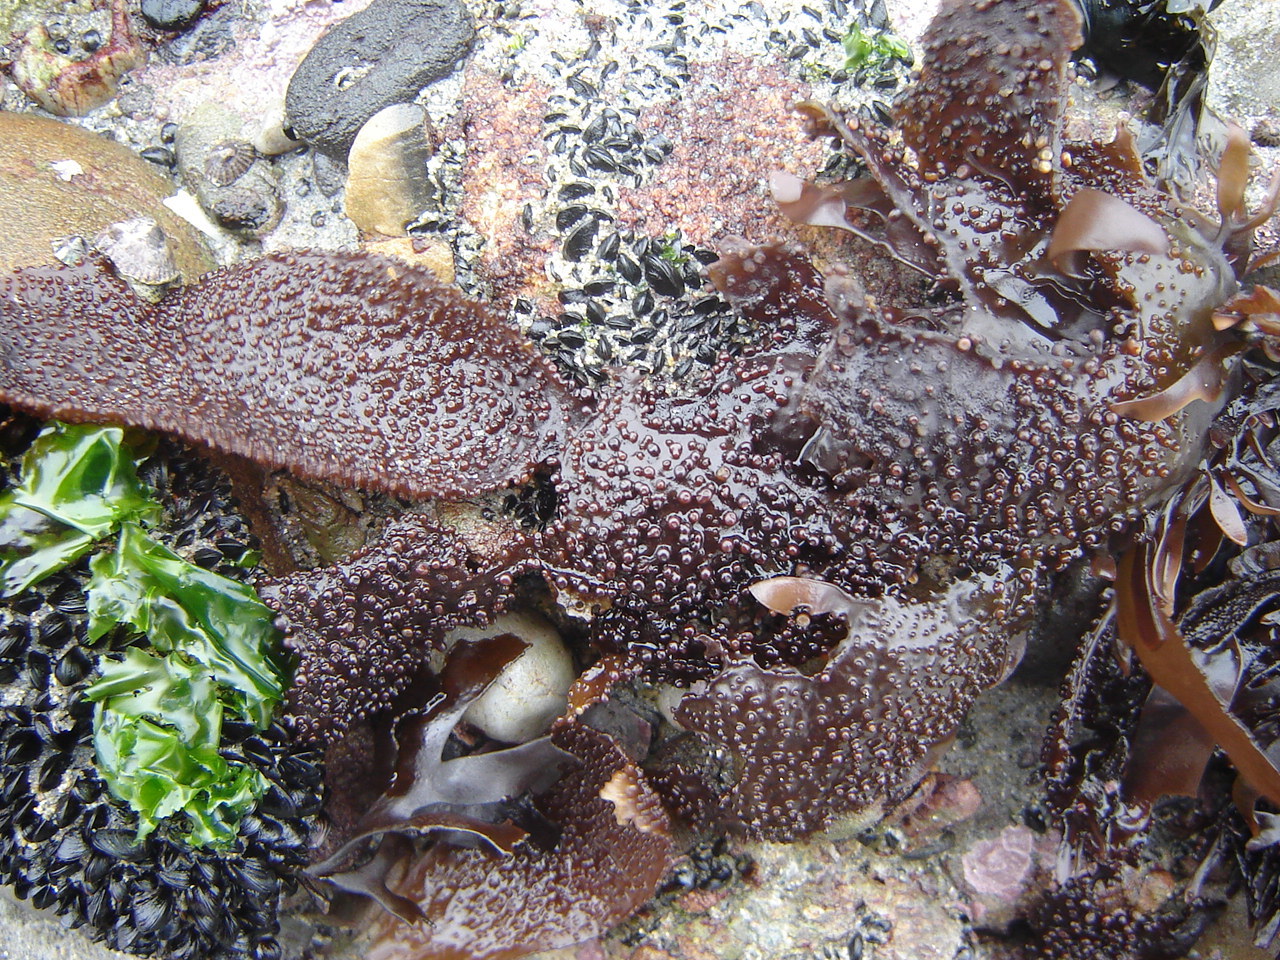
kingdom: Plantae
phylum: Rhodophyta
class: Florideophyceae
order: Gigartinales
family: Gigartinaceae
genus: Sarcothalia
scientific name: Sarcothalia
